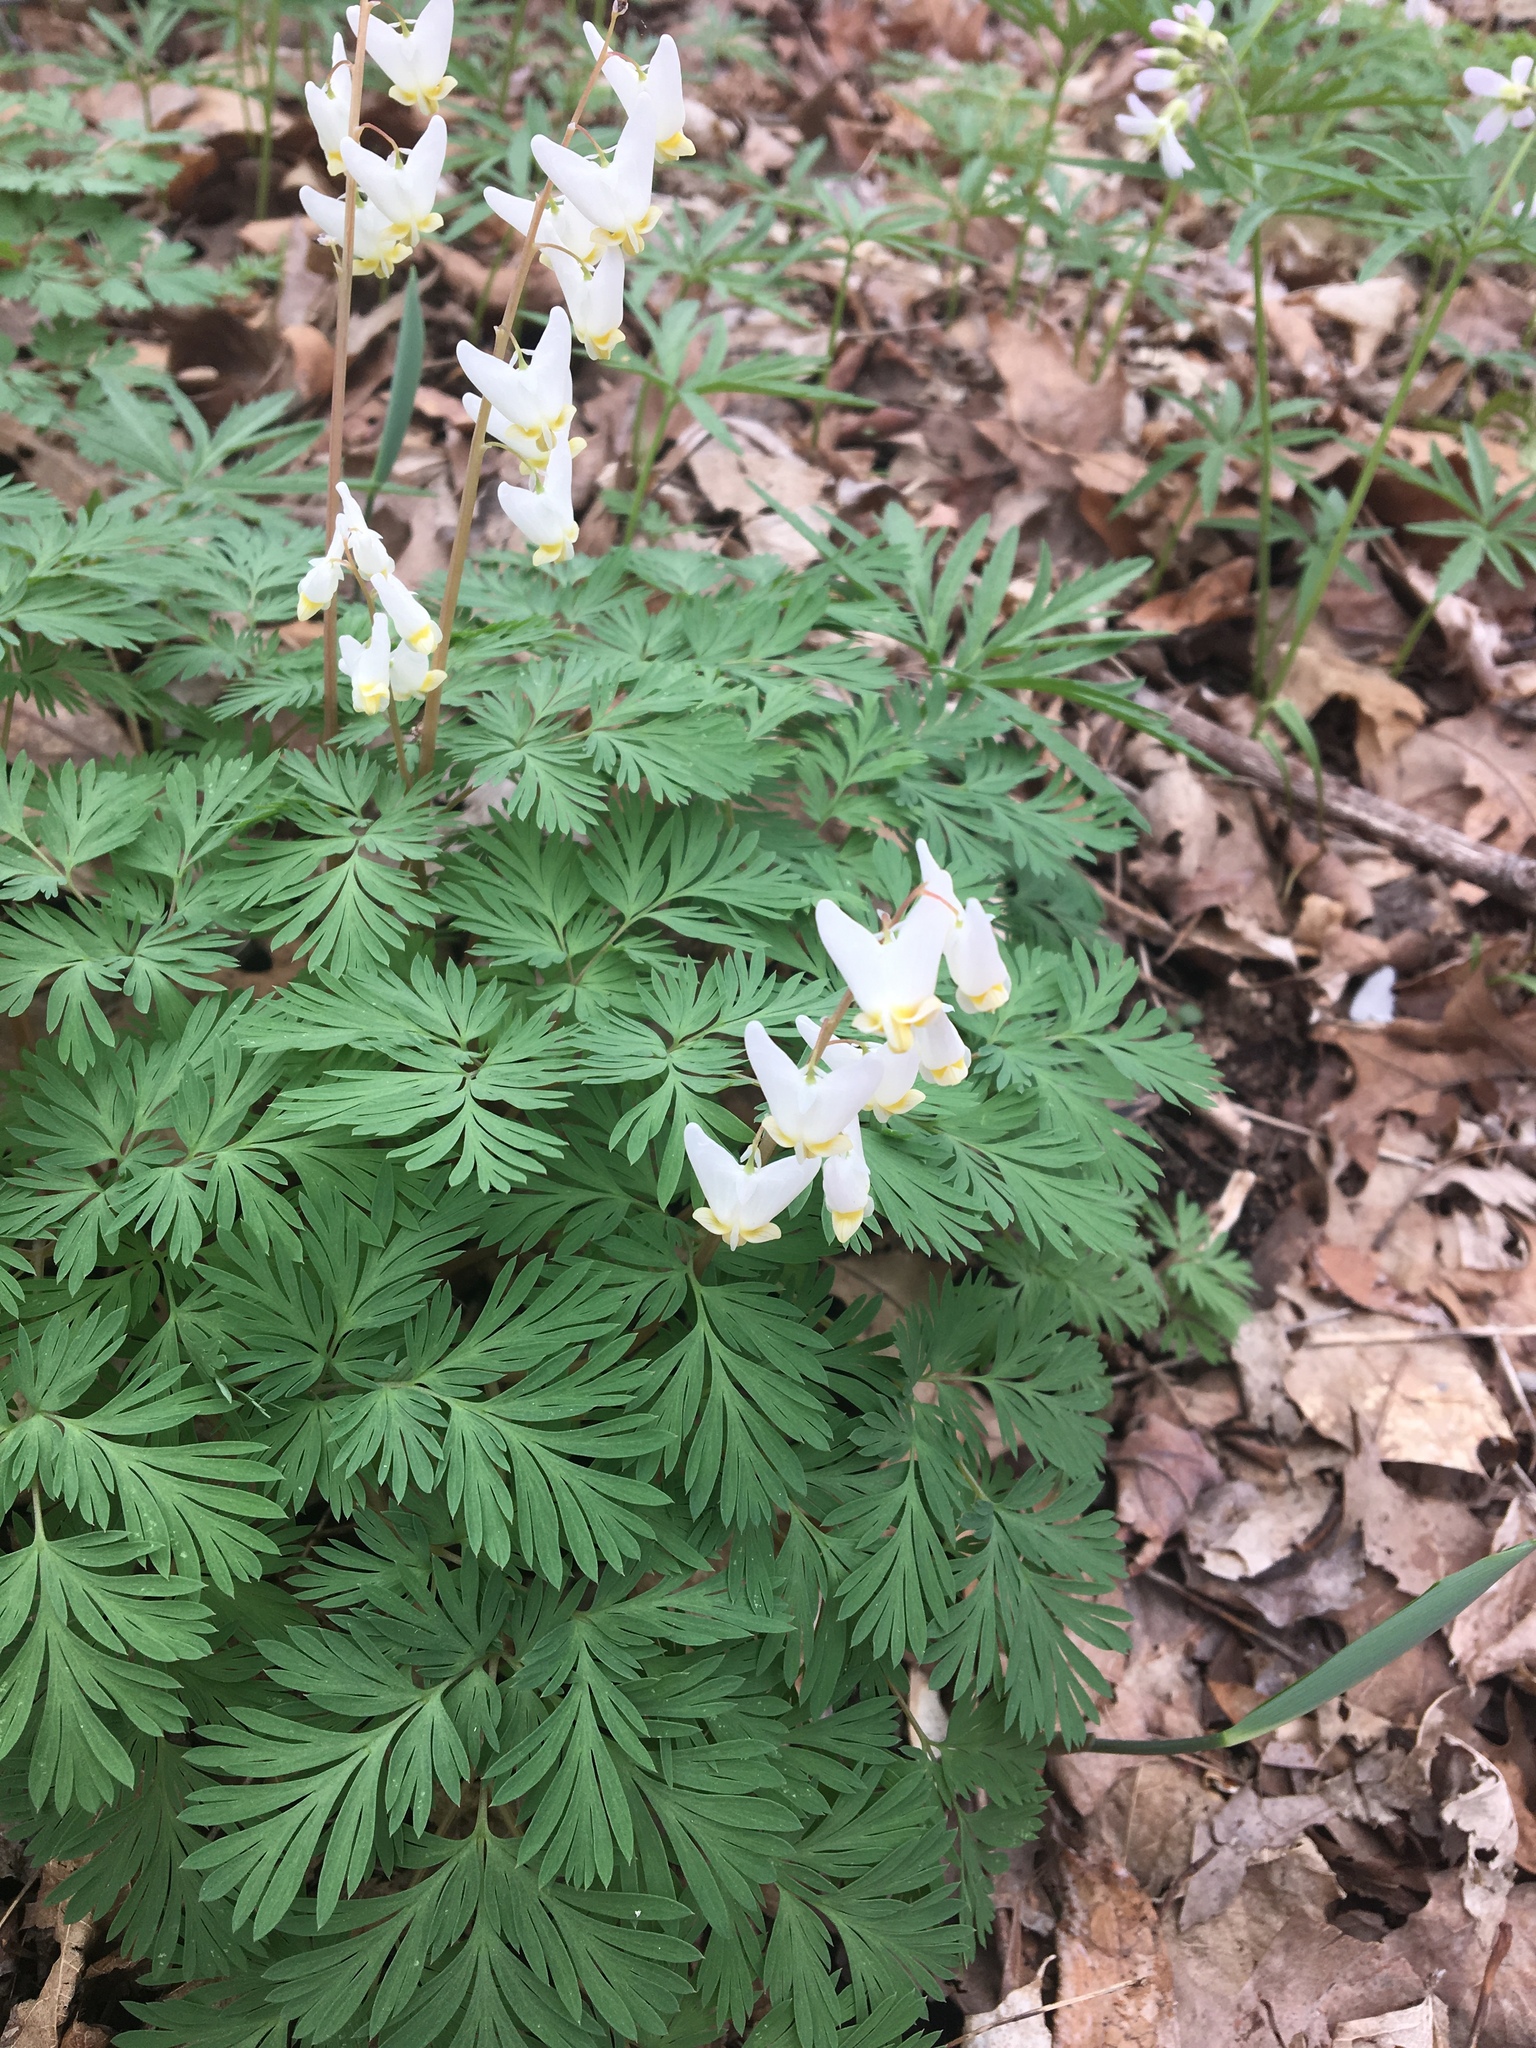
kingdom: Plantae
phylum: Tracheophyta
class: Magnoliopsida
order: Ranunculales
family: Papaveraceae
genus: Dicentra
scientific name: Dicentra cucullaria
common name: Dutchman's breeches
